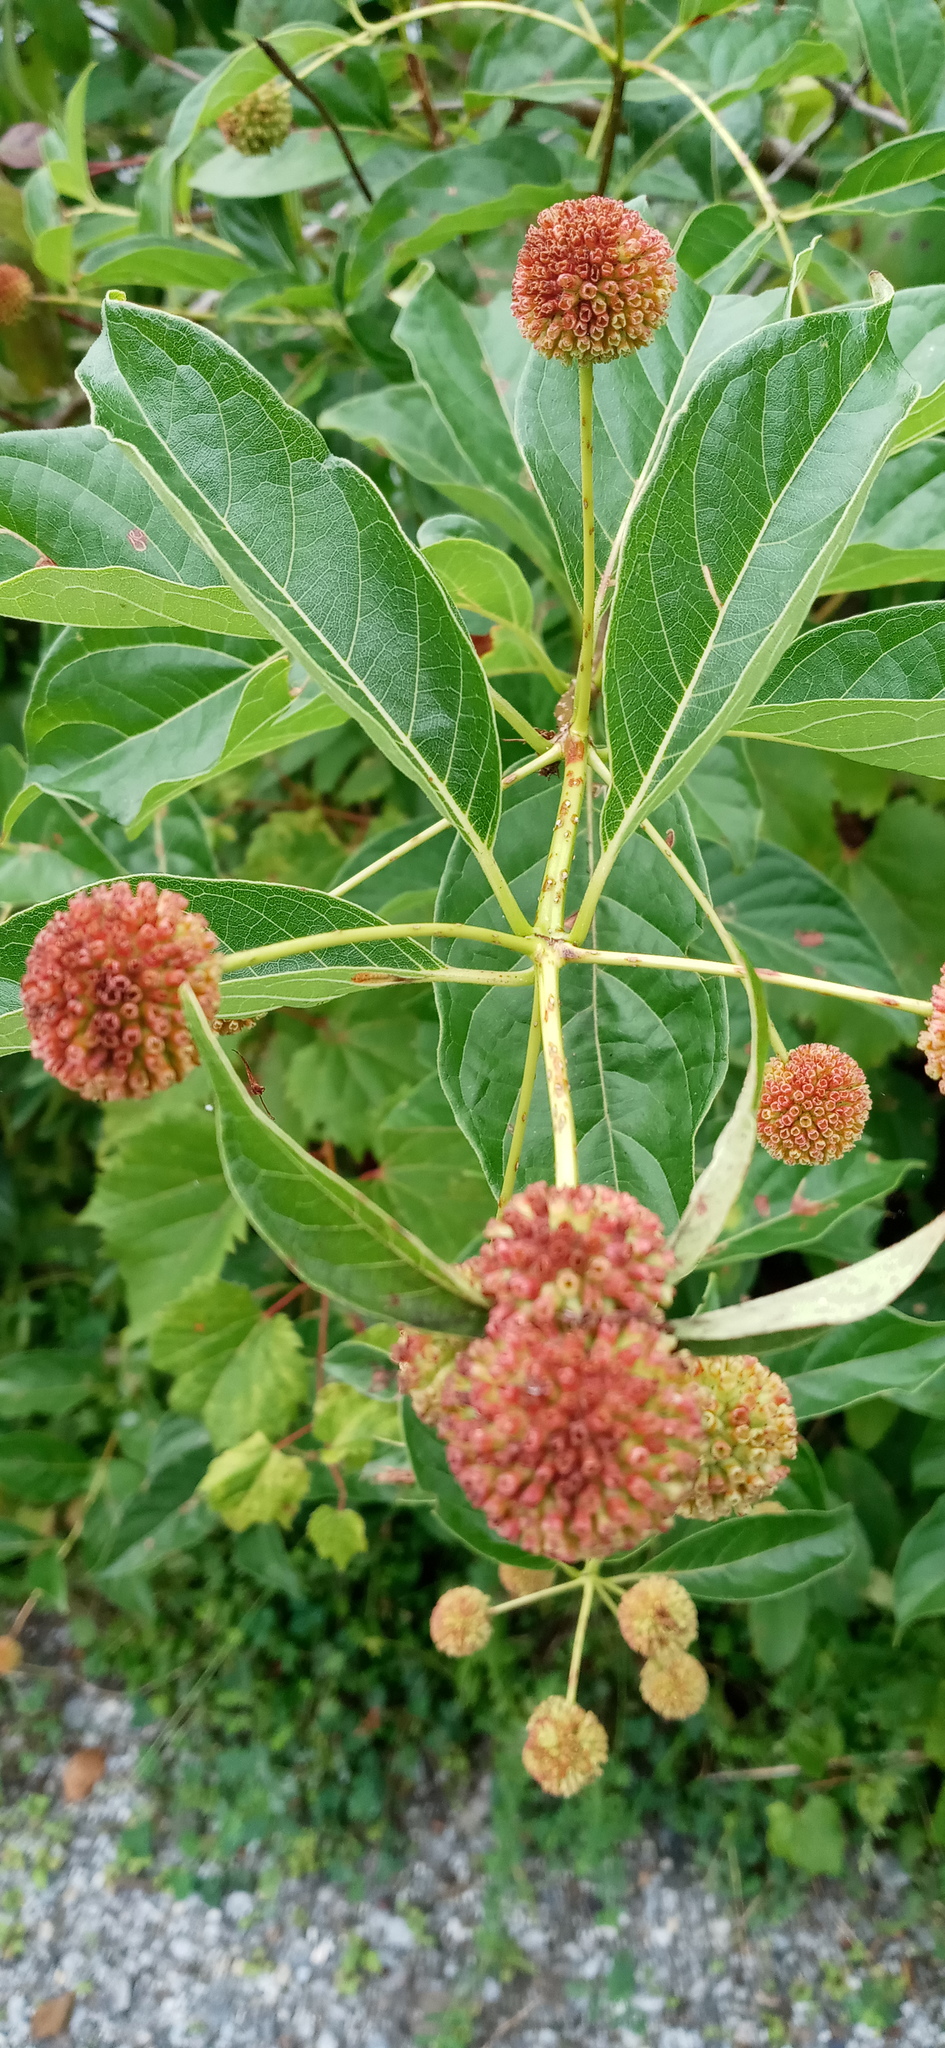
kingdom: Plantae
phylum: Tracheophyta
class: Magnoliopsida
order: Gentianales
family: Rubiaceae
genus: Cephalanthus
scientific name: Cephalanthus occidentalis
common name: Button-willow
